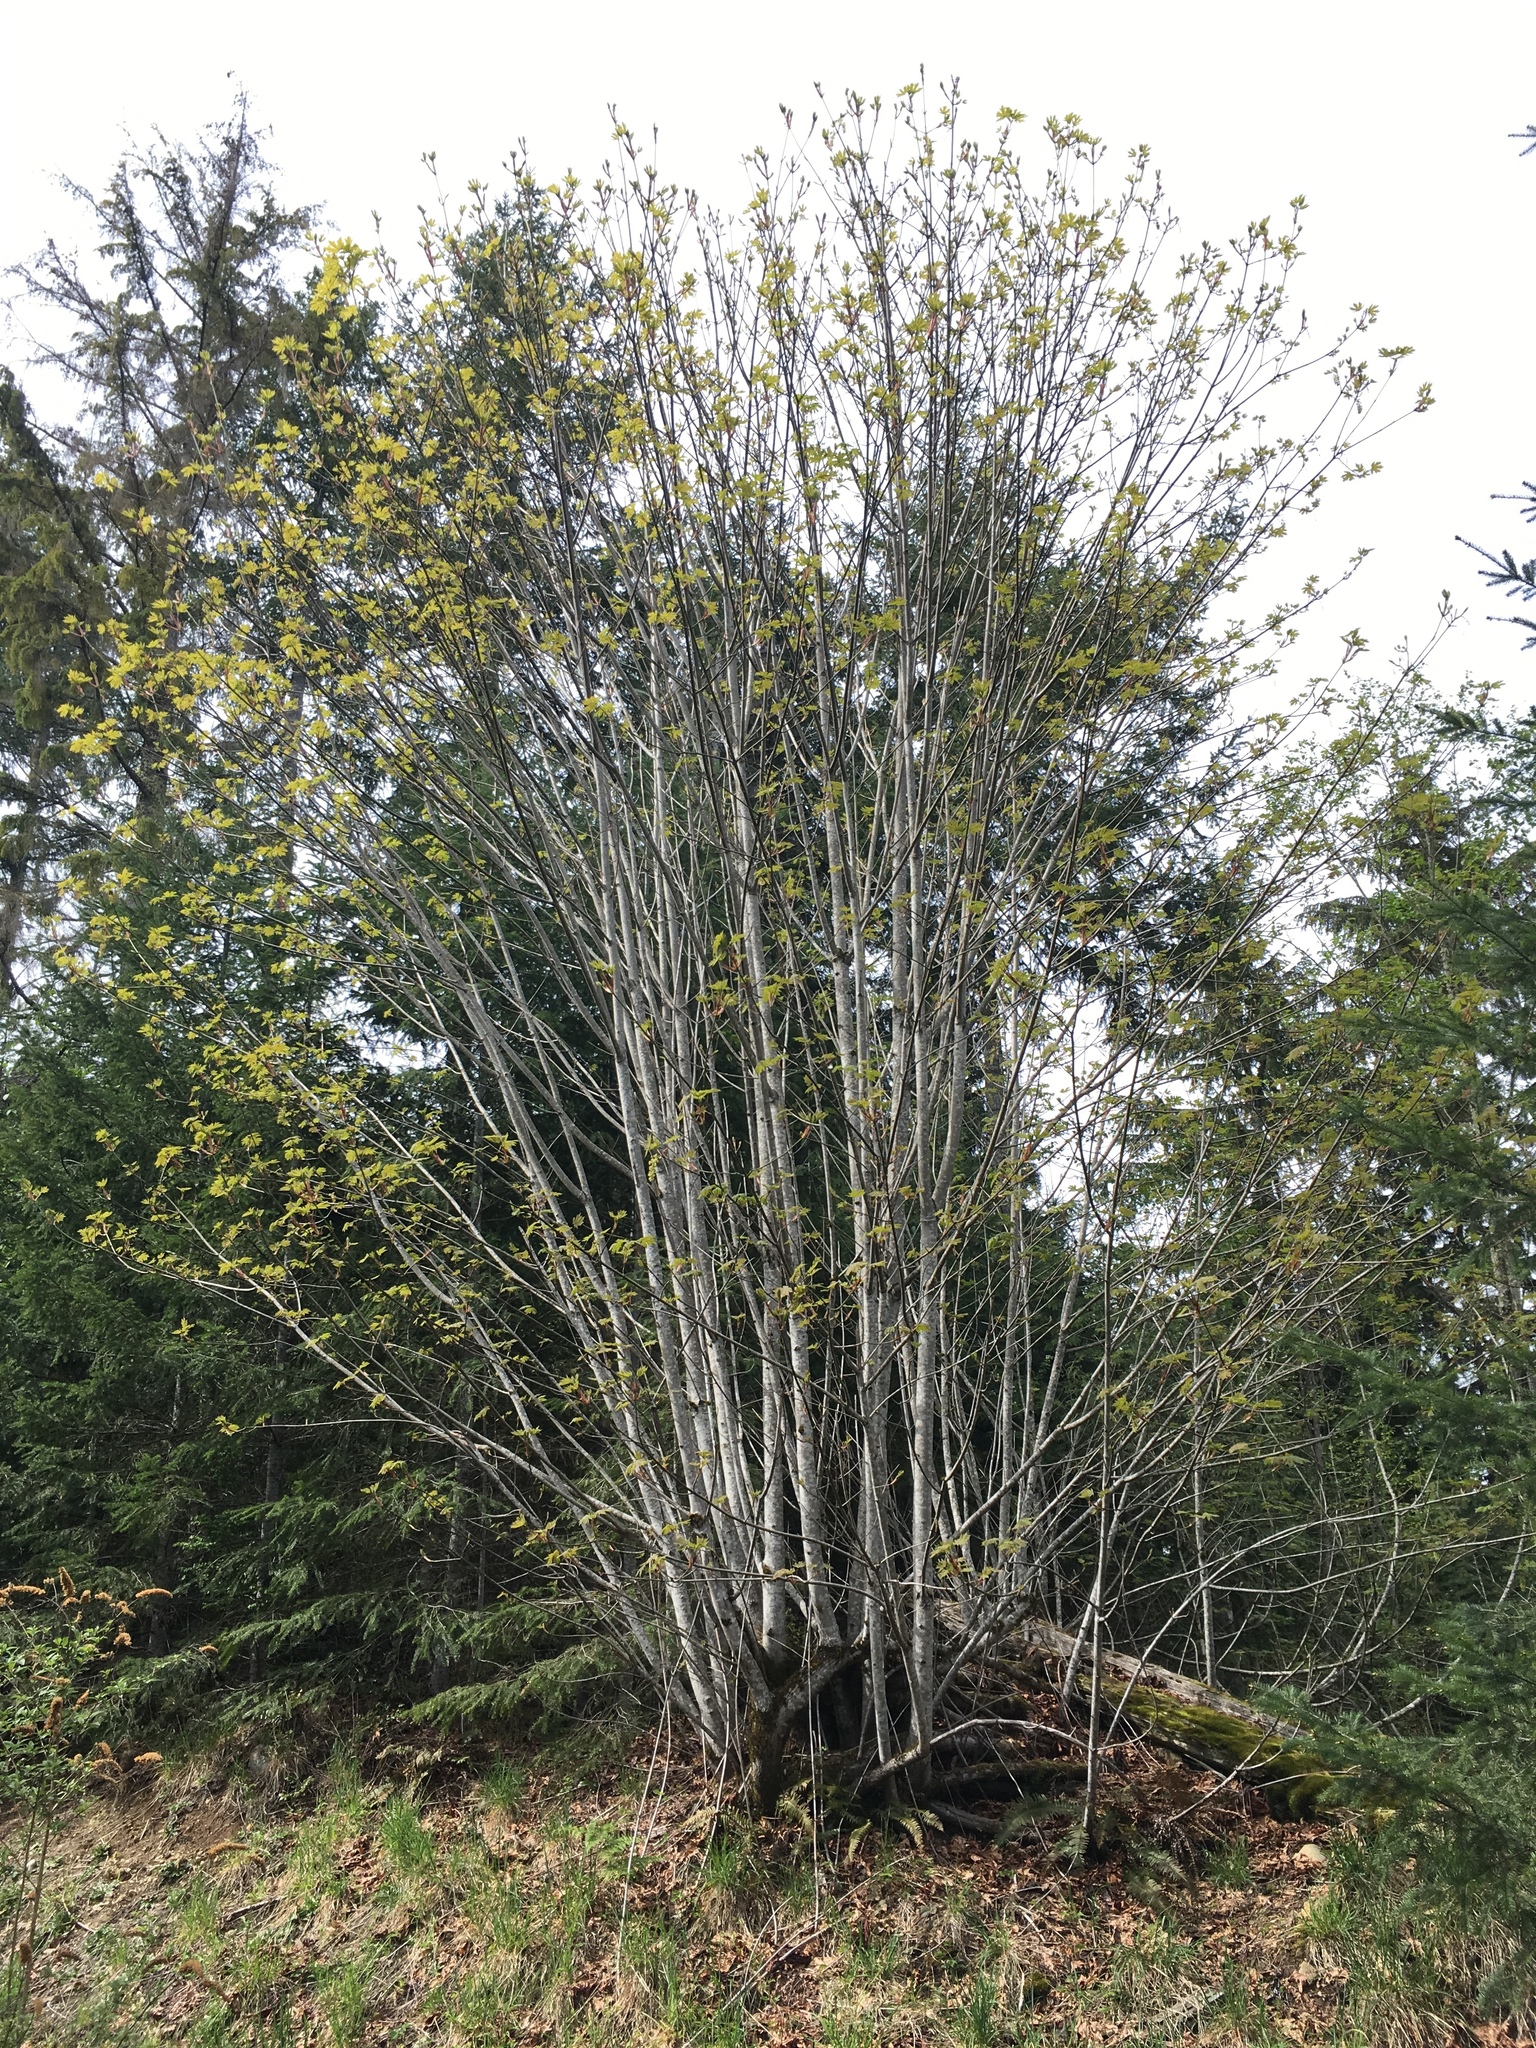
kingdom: Plantae
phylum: Tracheophyta
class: Magnoliopsida
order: Sapindales
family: Sapindaceae
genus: Acer
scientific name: Acer macrophyllum
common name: Oregon maple
